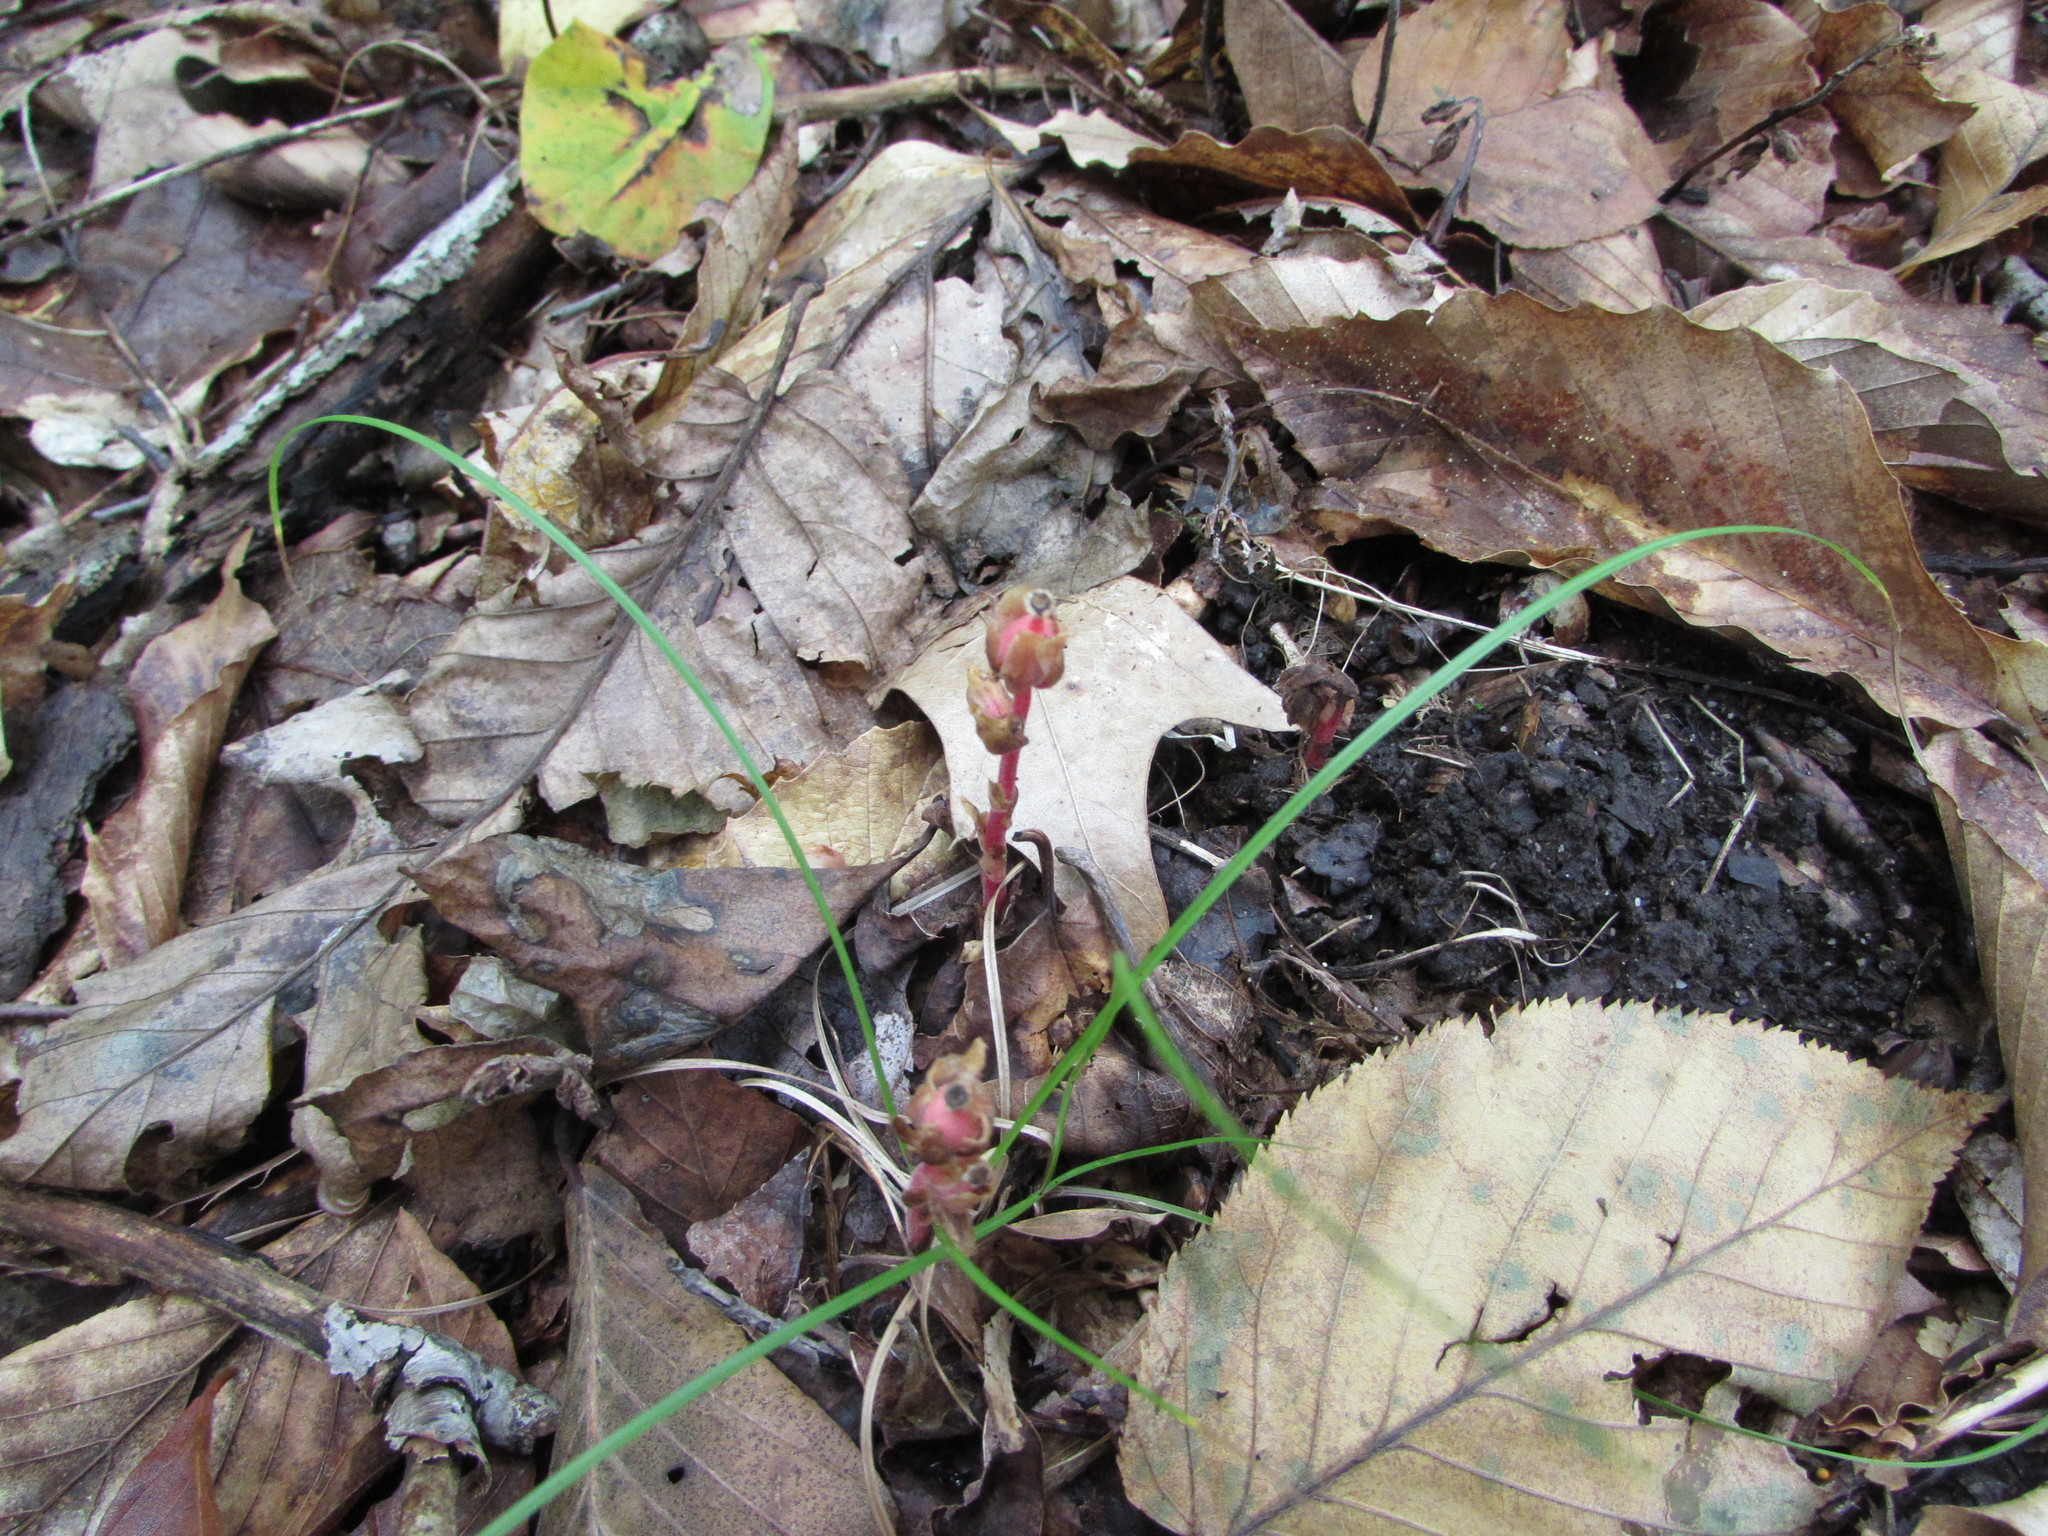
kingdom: Plantae
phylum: Tracheophyta
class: Magnoliopsida
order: Ericales
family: Ericaceae
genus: Hypopitys
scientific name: Hypopitys monotropa
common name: Yellow bird's-nest
